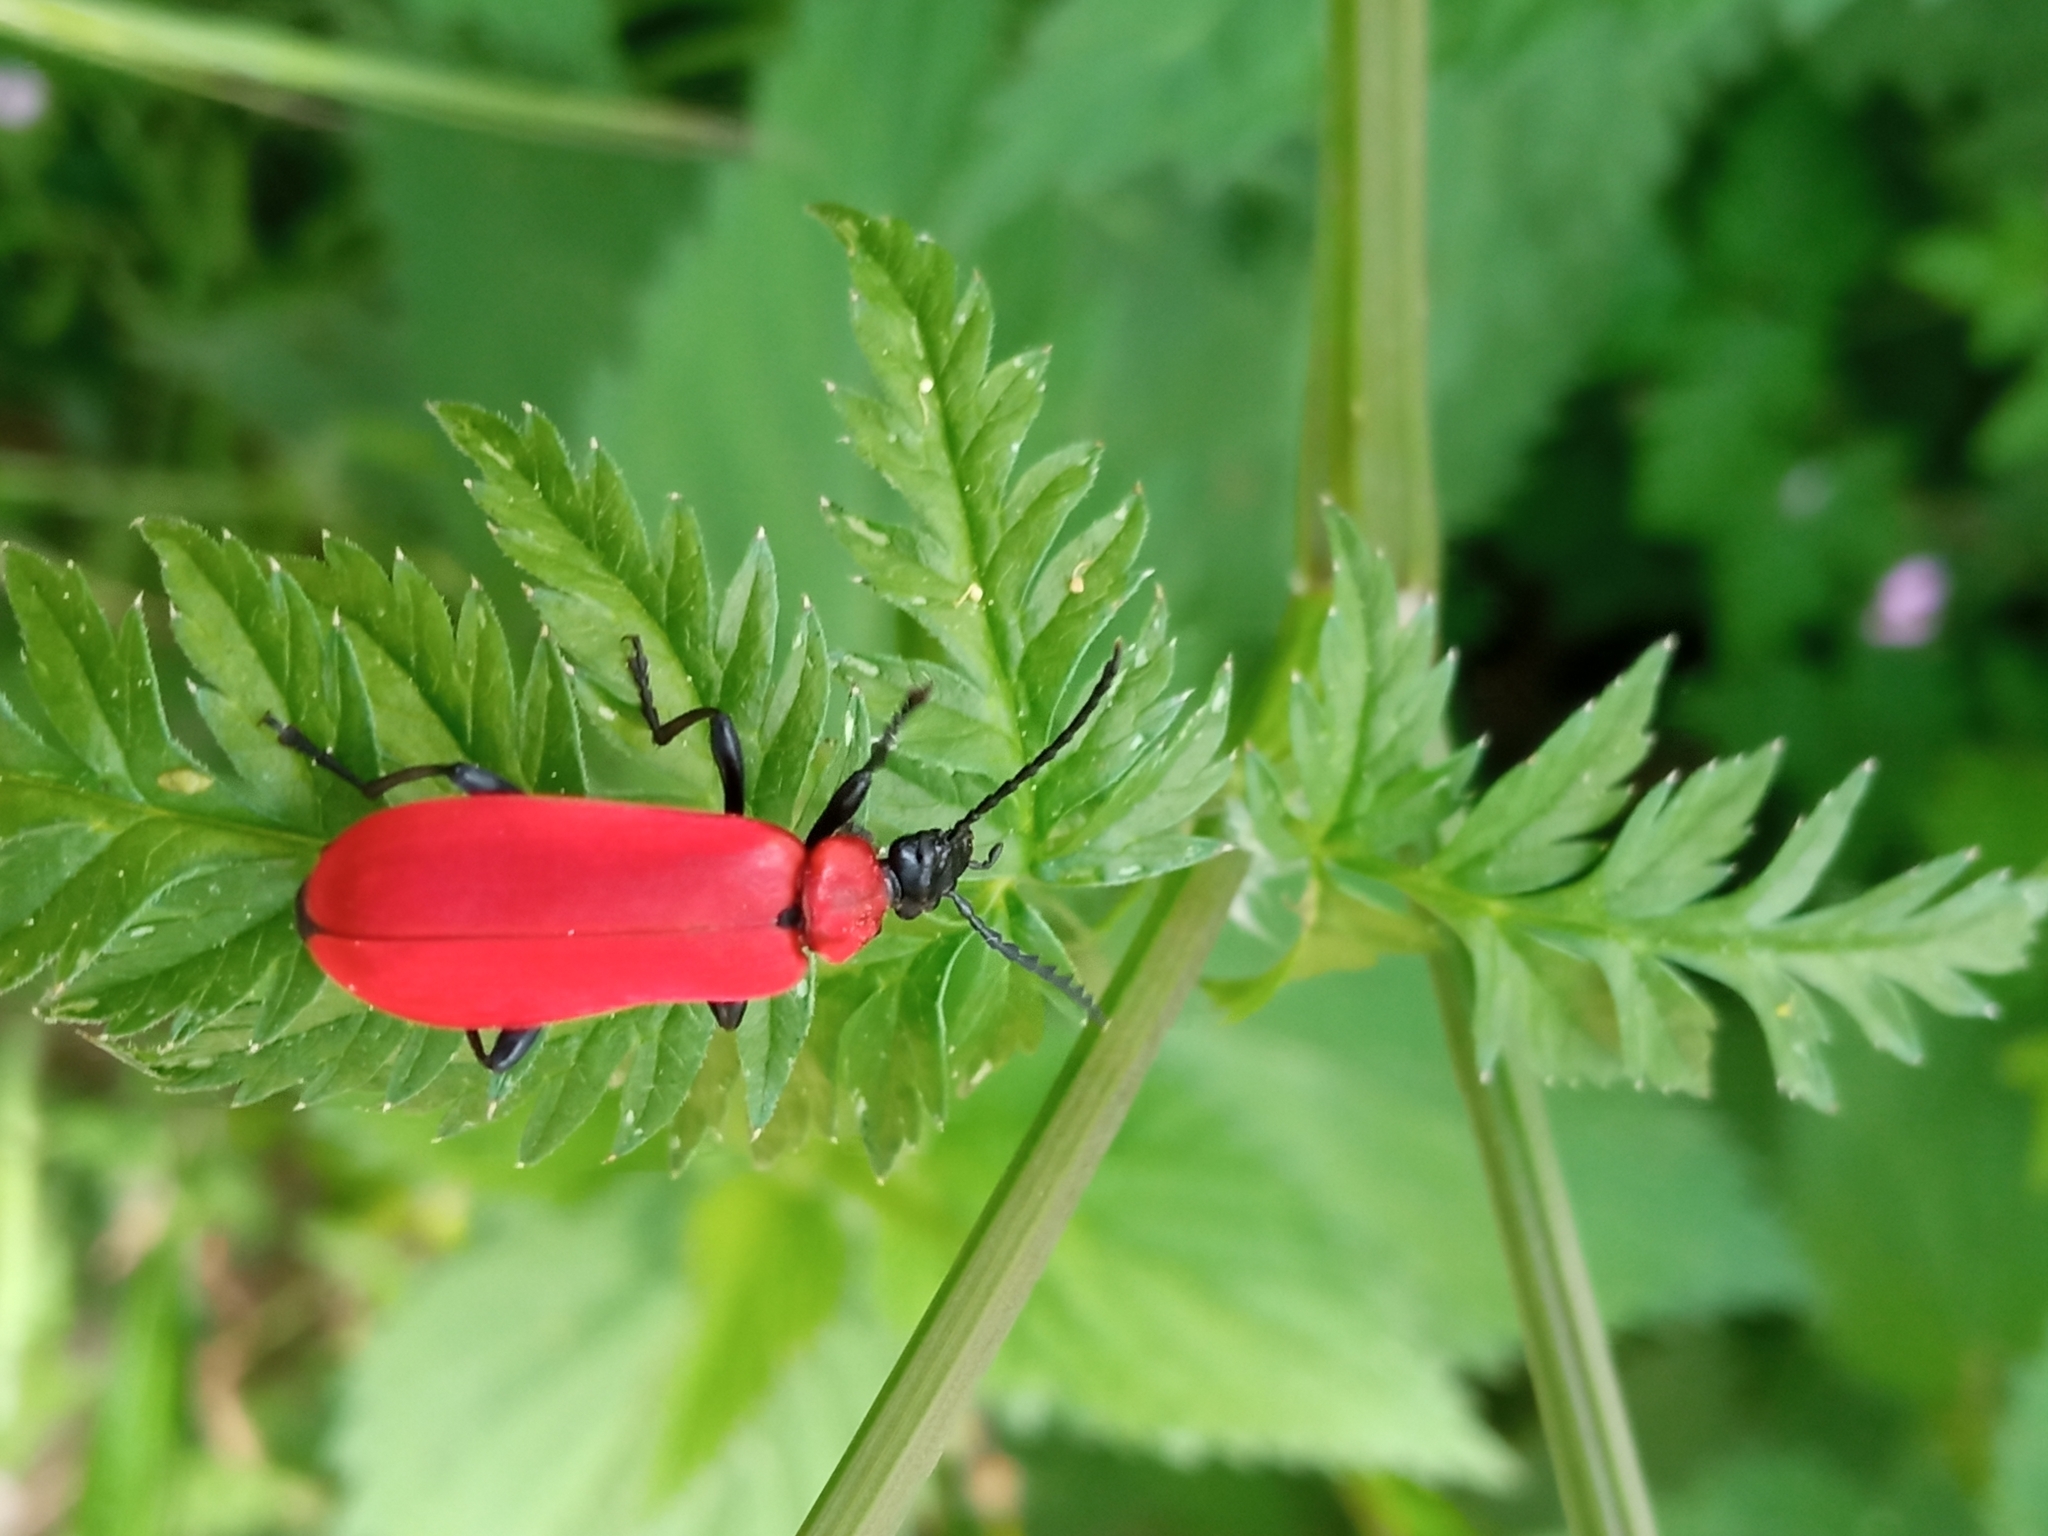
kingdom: Animalia
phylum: Arthropoda
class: Insecta
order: Coleoptera
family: Pyrochroidae
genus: Pyrochroa
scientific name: Pyrochroa coccinea
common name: Black-headed cardinal beetle
